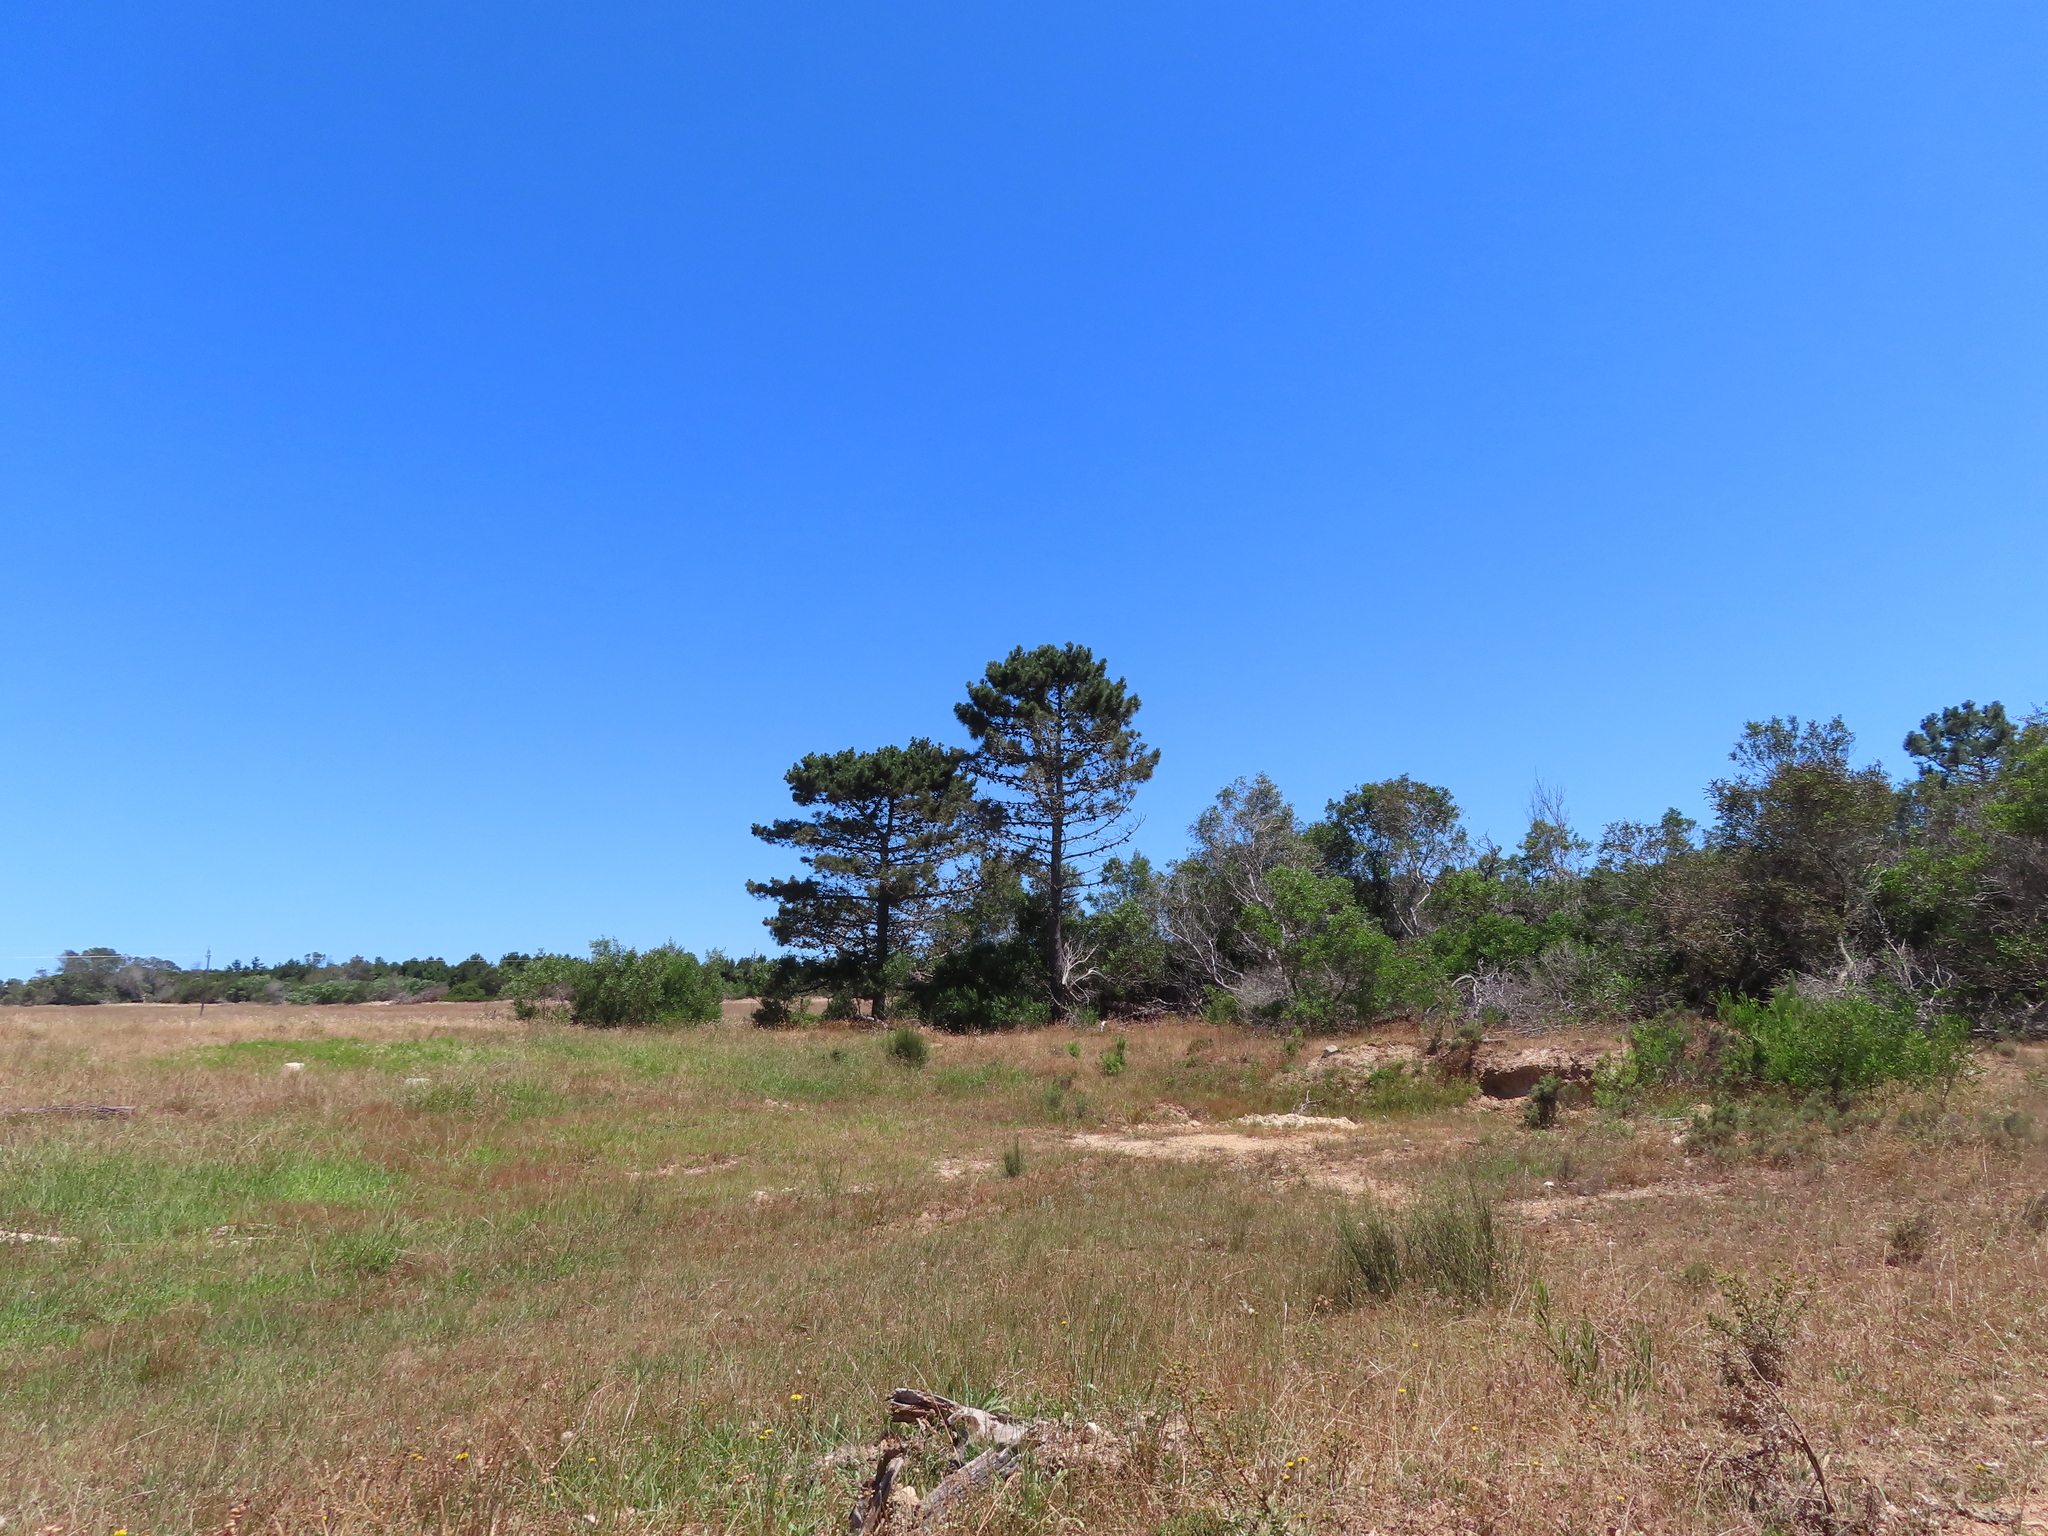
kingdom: Plantae
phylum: Tracheophyta
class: Pinopsida
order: Pinales
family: Pinaceae
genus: Pinus
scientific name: Pinus pinaster
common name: Maritime pine
